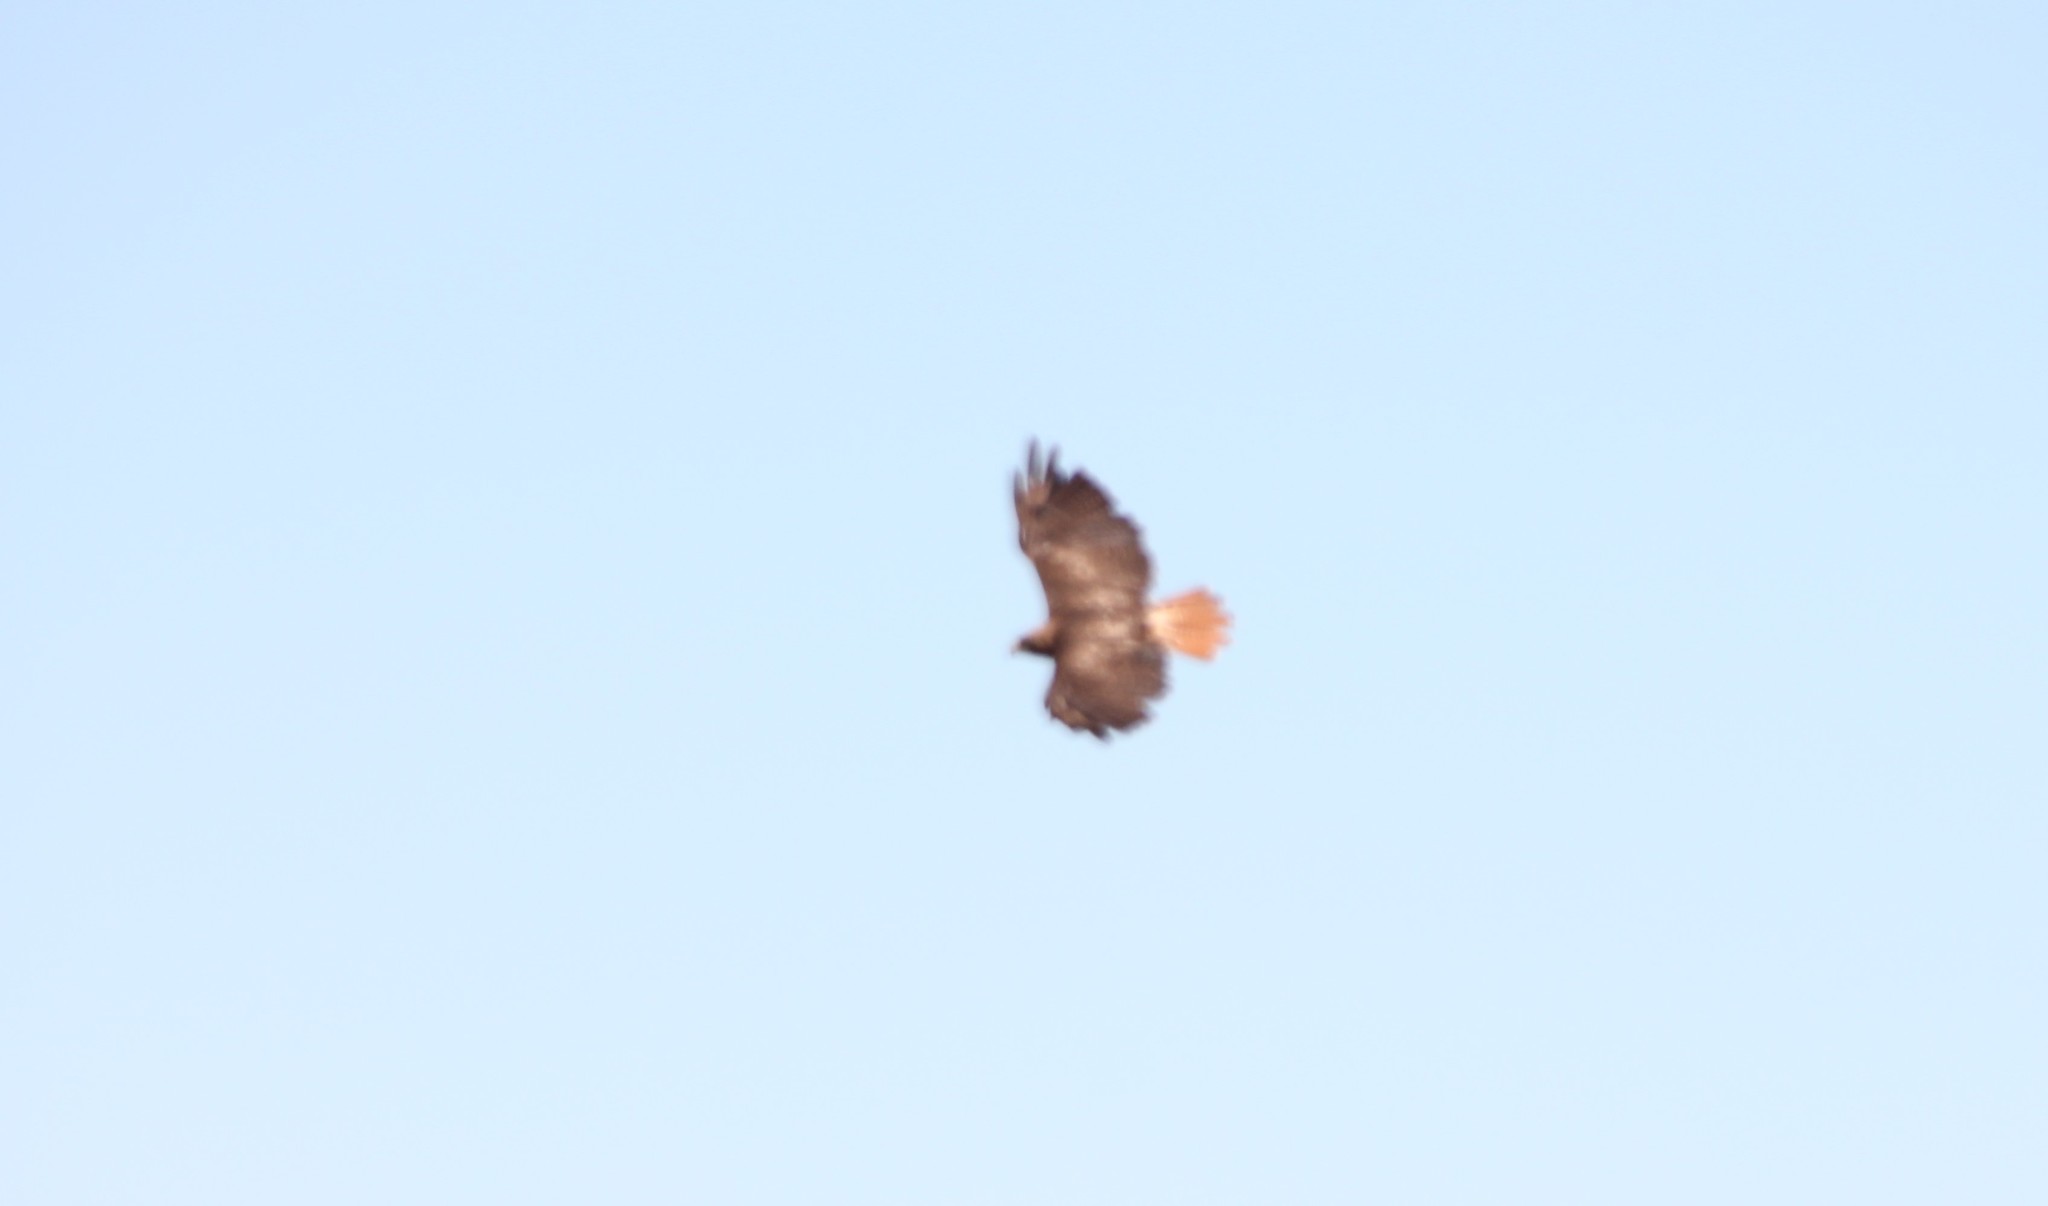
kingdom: Animalia
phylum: Chordata
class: Aves
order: Accipitriformes
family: Accipitridae
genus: Buteo
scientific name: Buteo jamaicensis
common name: Red-tailed hawk
